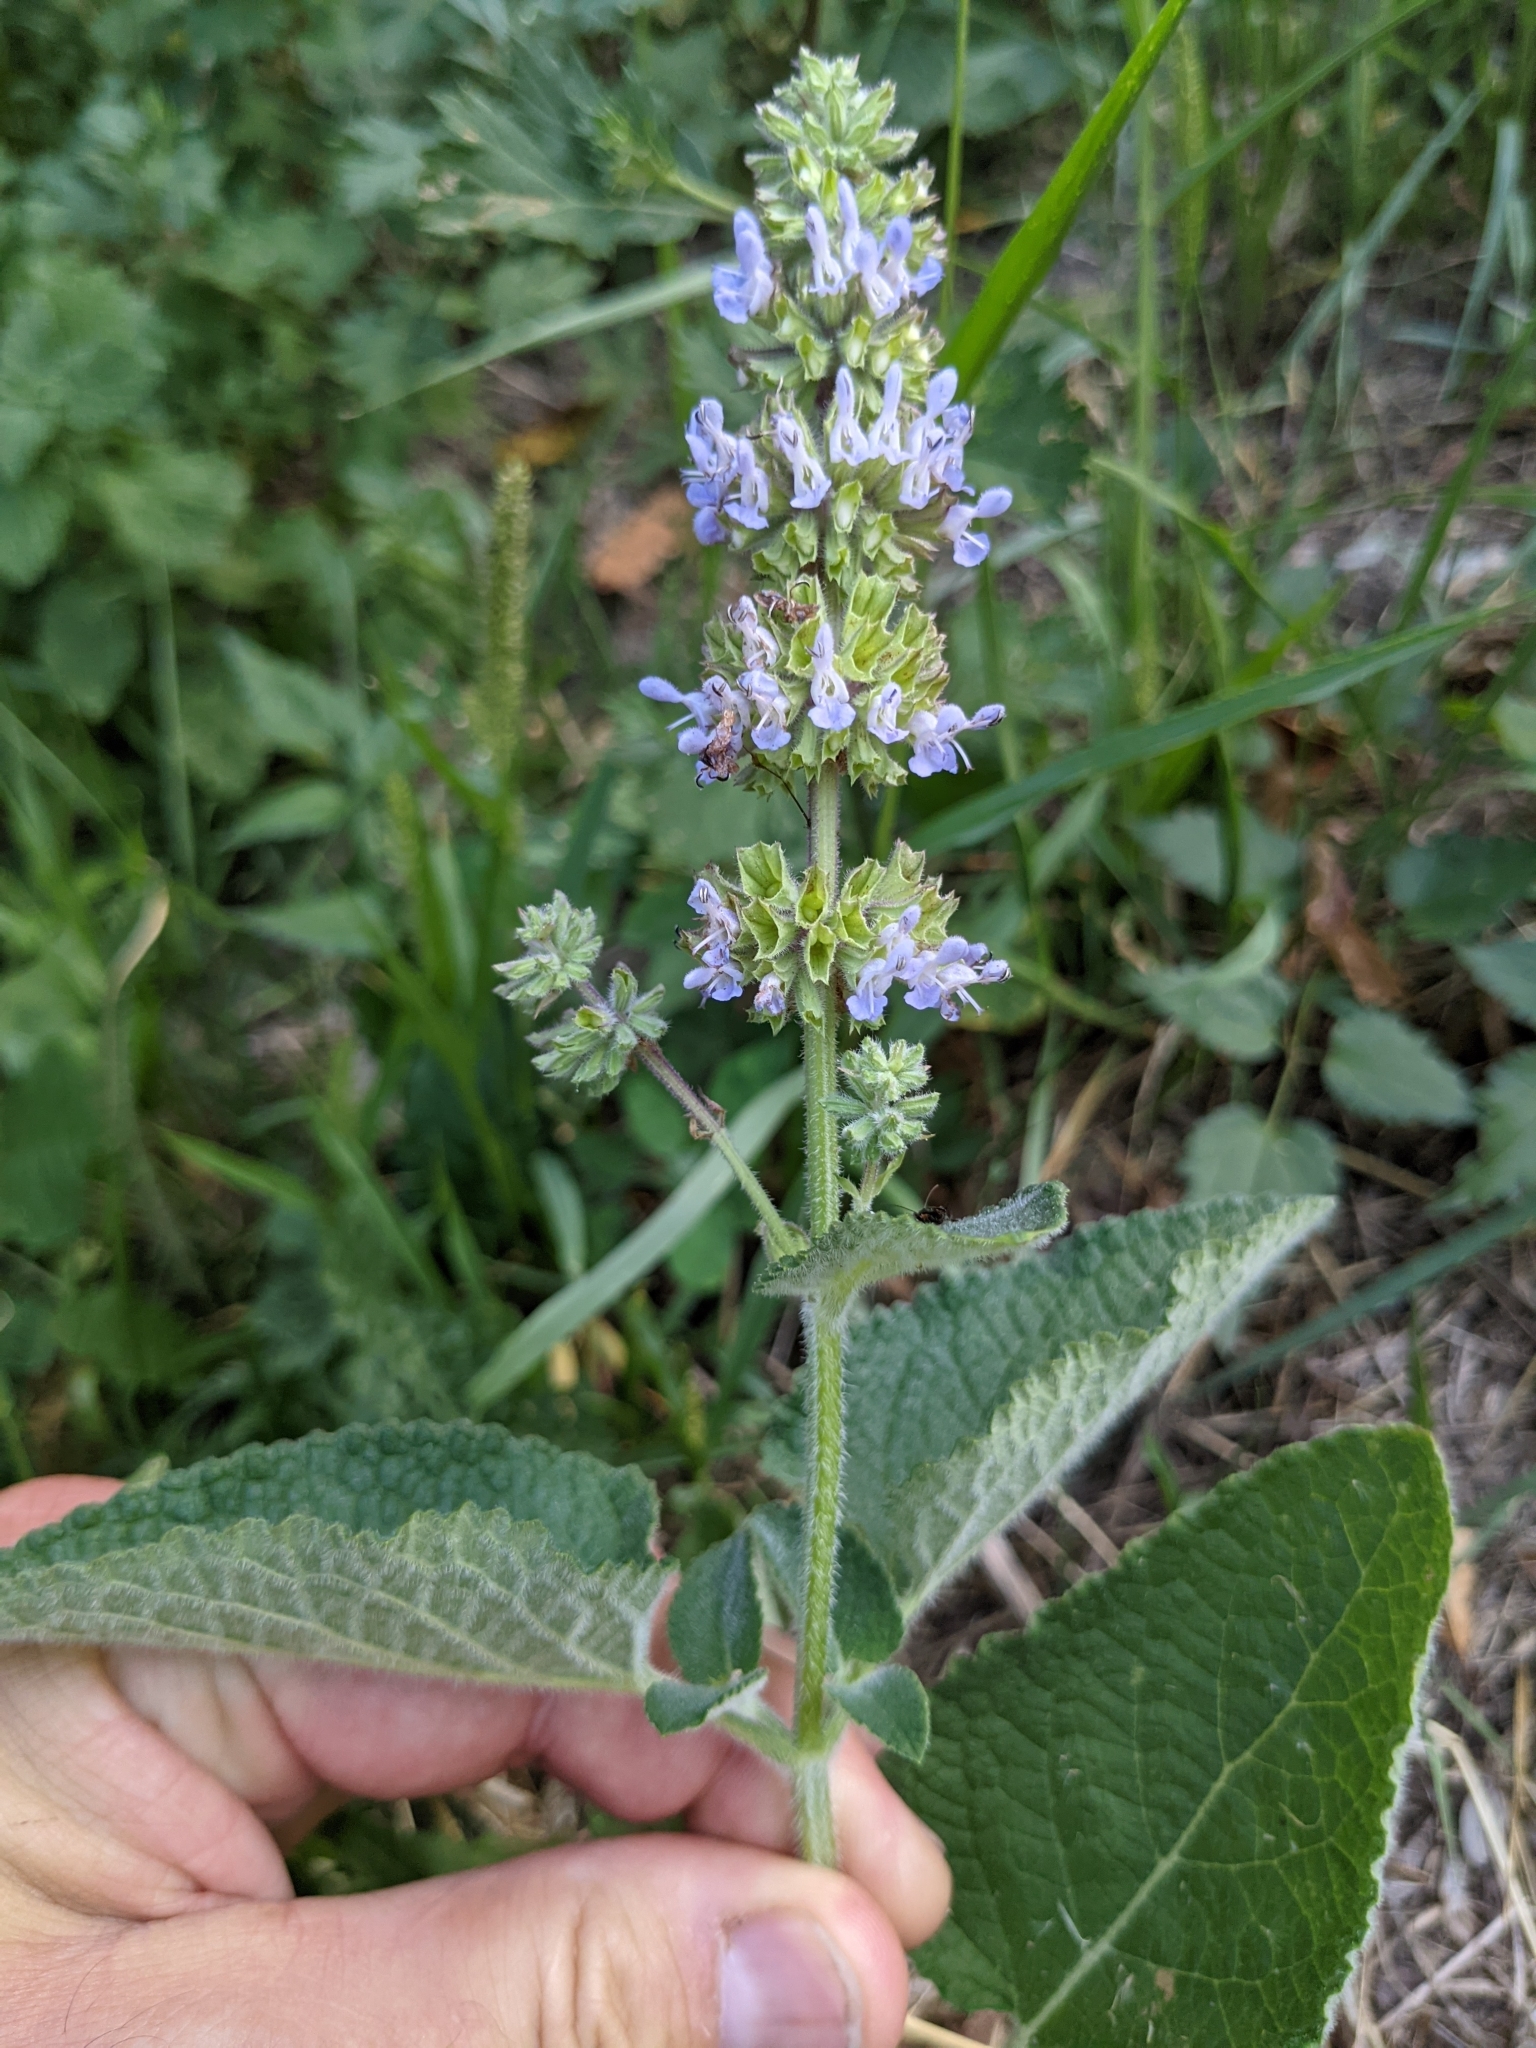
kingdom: Plantae
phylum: Tracheophyta
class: Magnoliopsida
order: Lamiales
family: Lamiaceae
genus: Salvia
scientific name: Salvia verticillata
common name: Whorled clary
